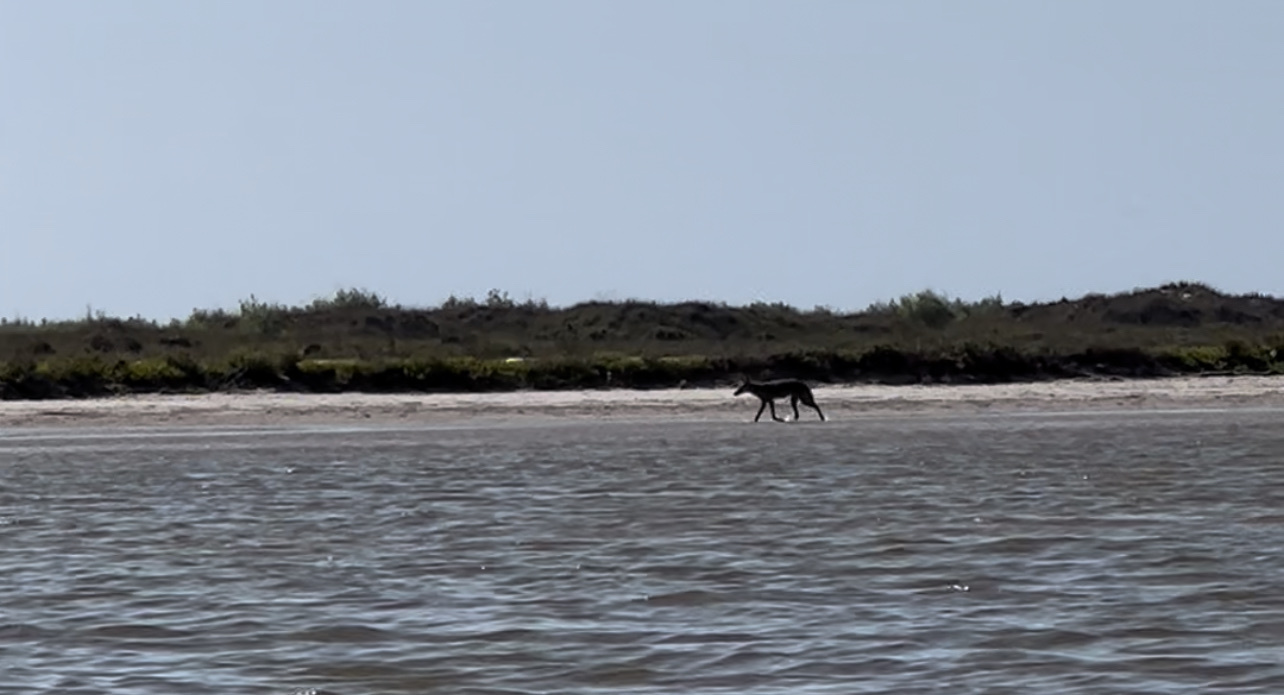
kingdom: Animalia
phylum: Chordata
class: Mammalia
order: Carnivora
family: Canidae
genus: Canis
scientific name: Canis latrans
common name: Coyote
